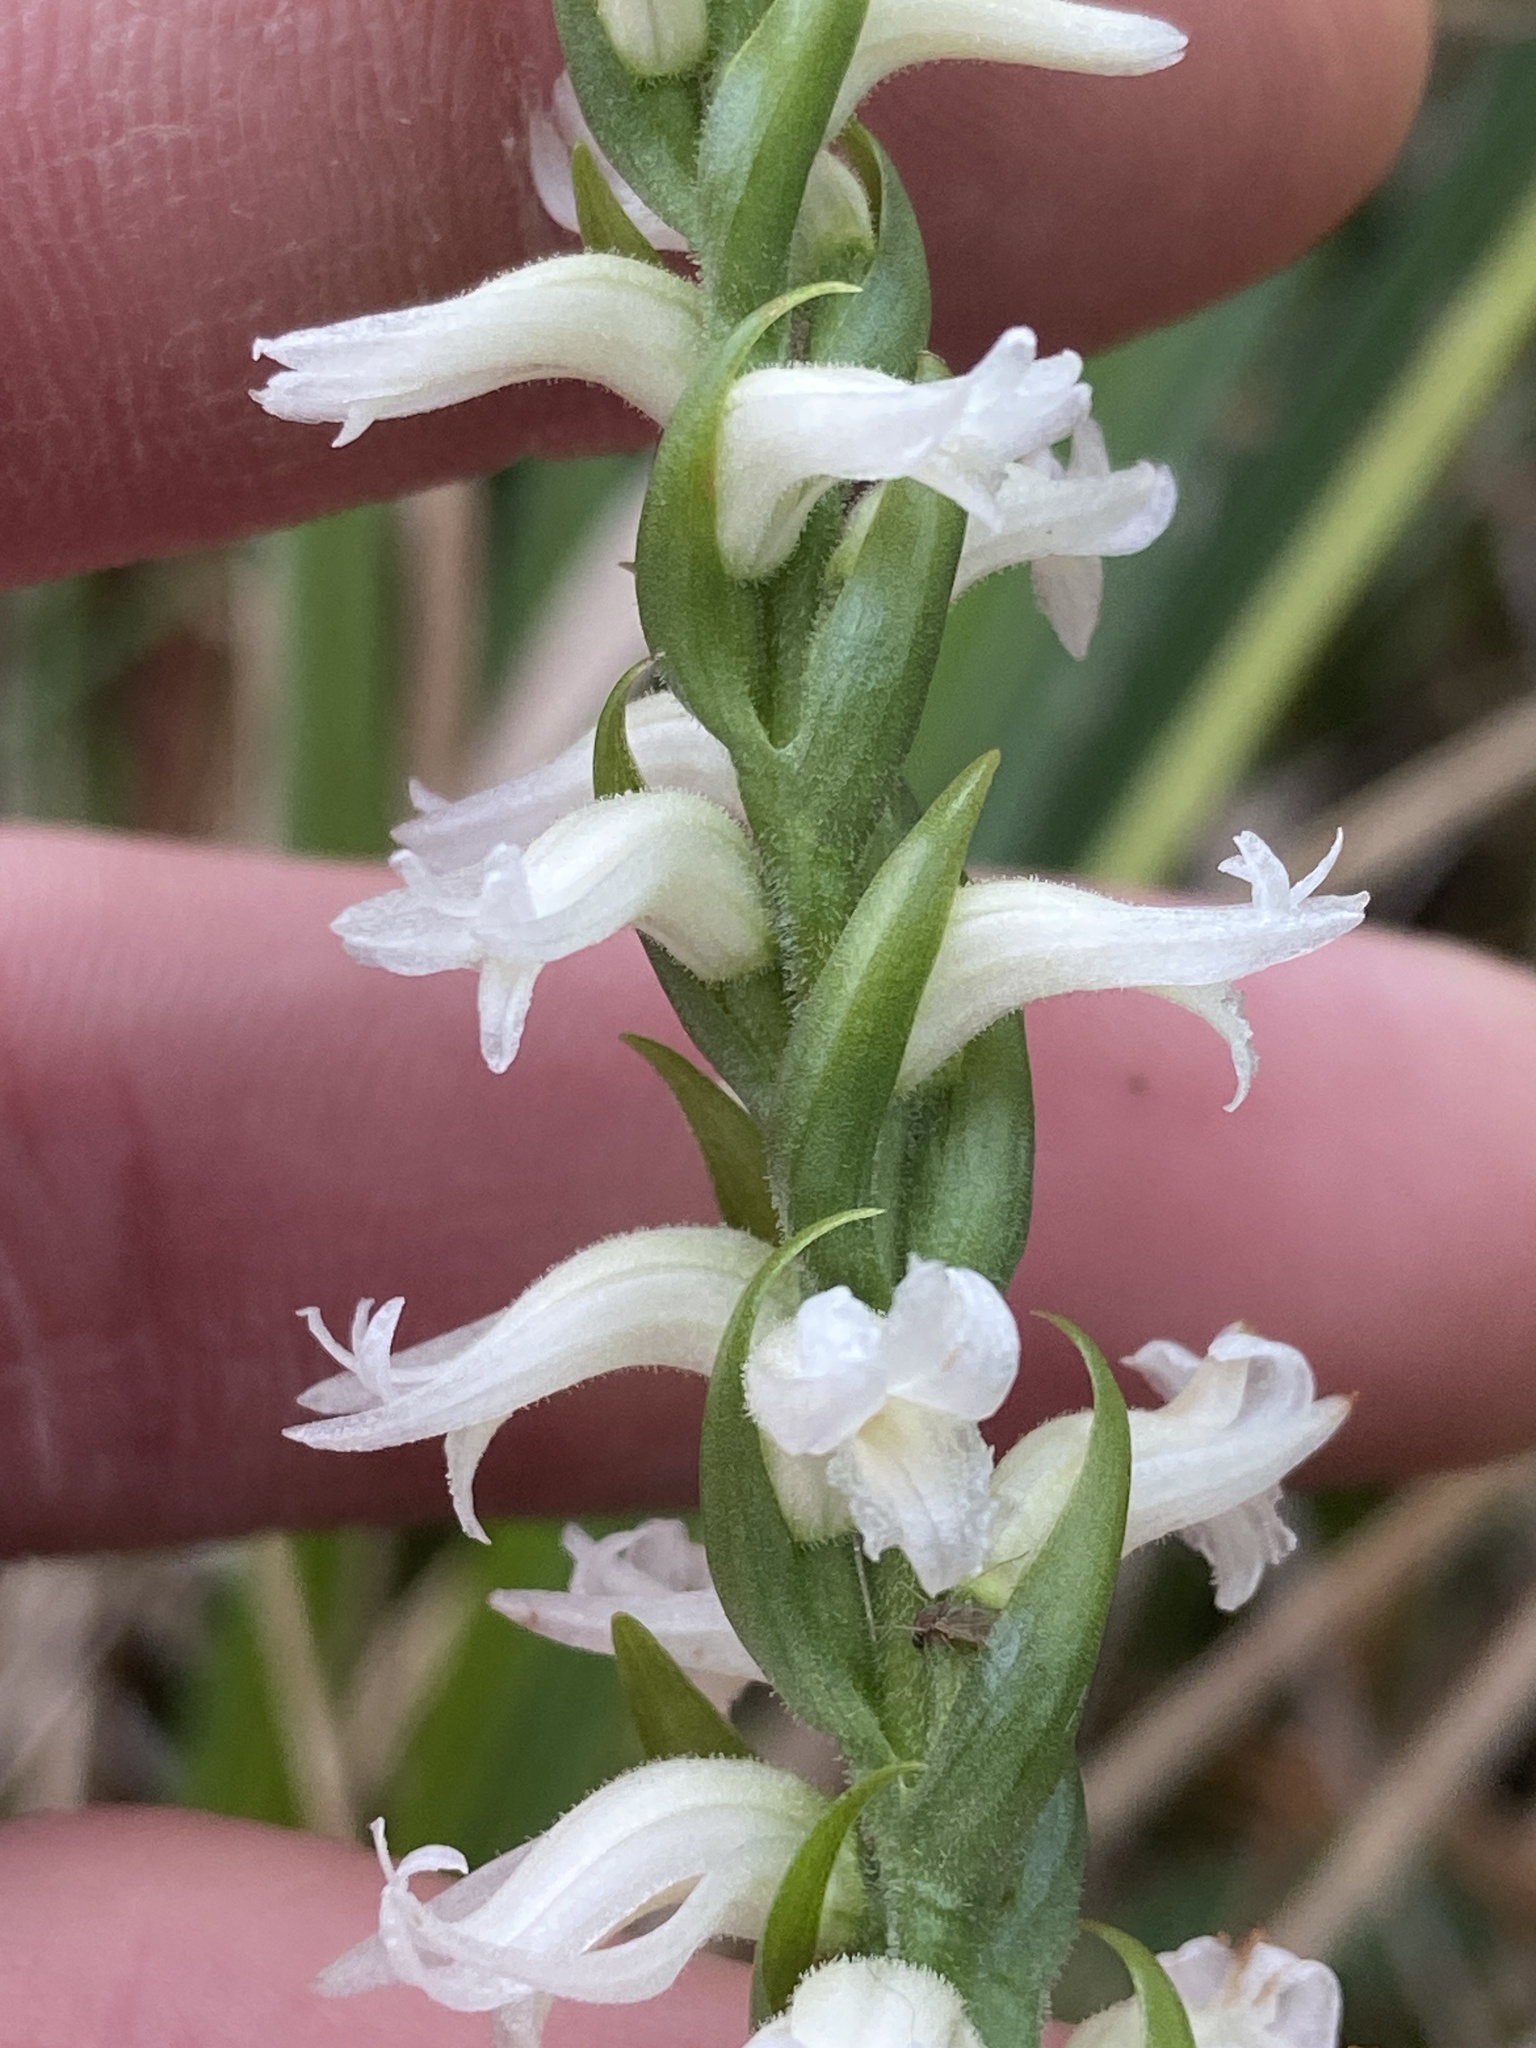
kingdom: Plantae
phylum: Tracheophyta
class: Liliopsida
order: Asparagales
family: Orchidaceae
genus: Spiranthes
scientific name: Spiranthes cernua
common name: Dropping ladies'-tresses
